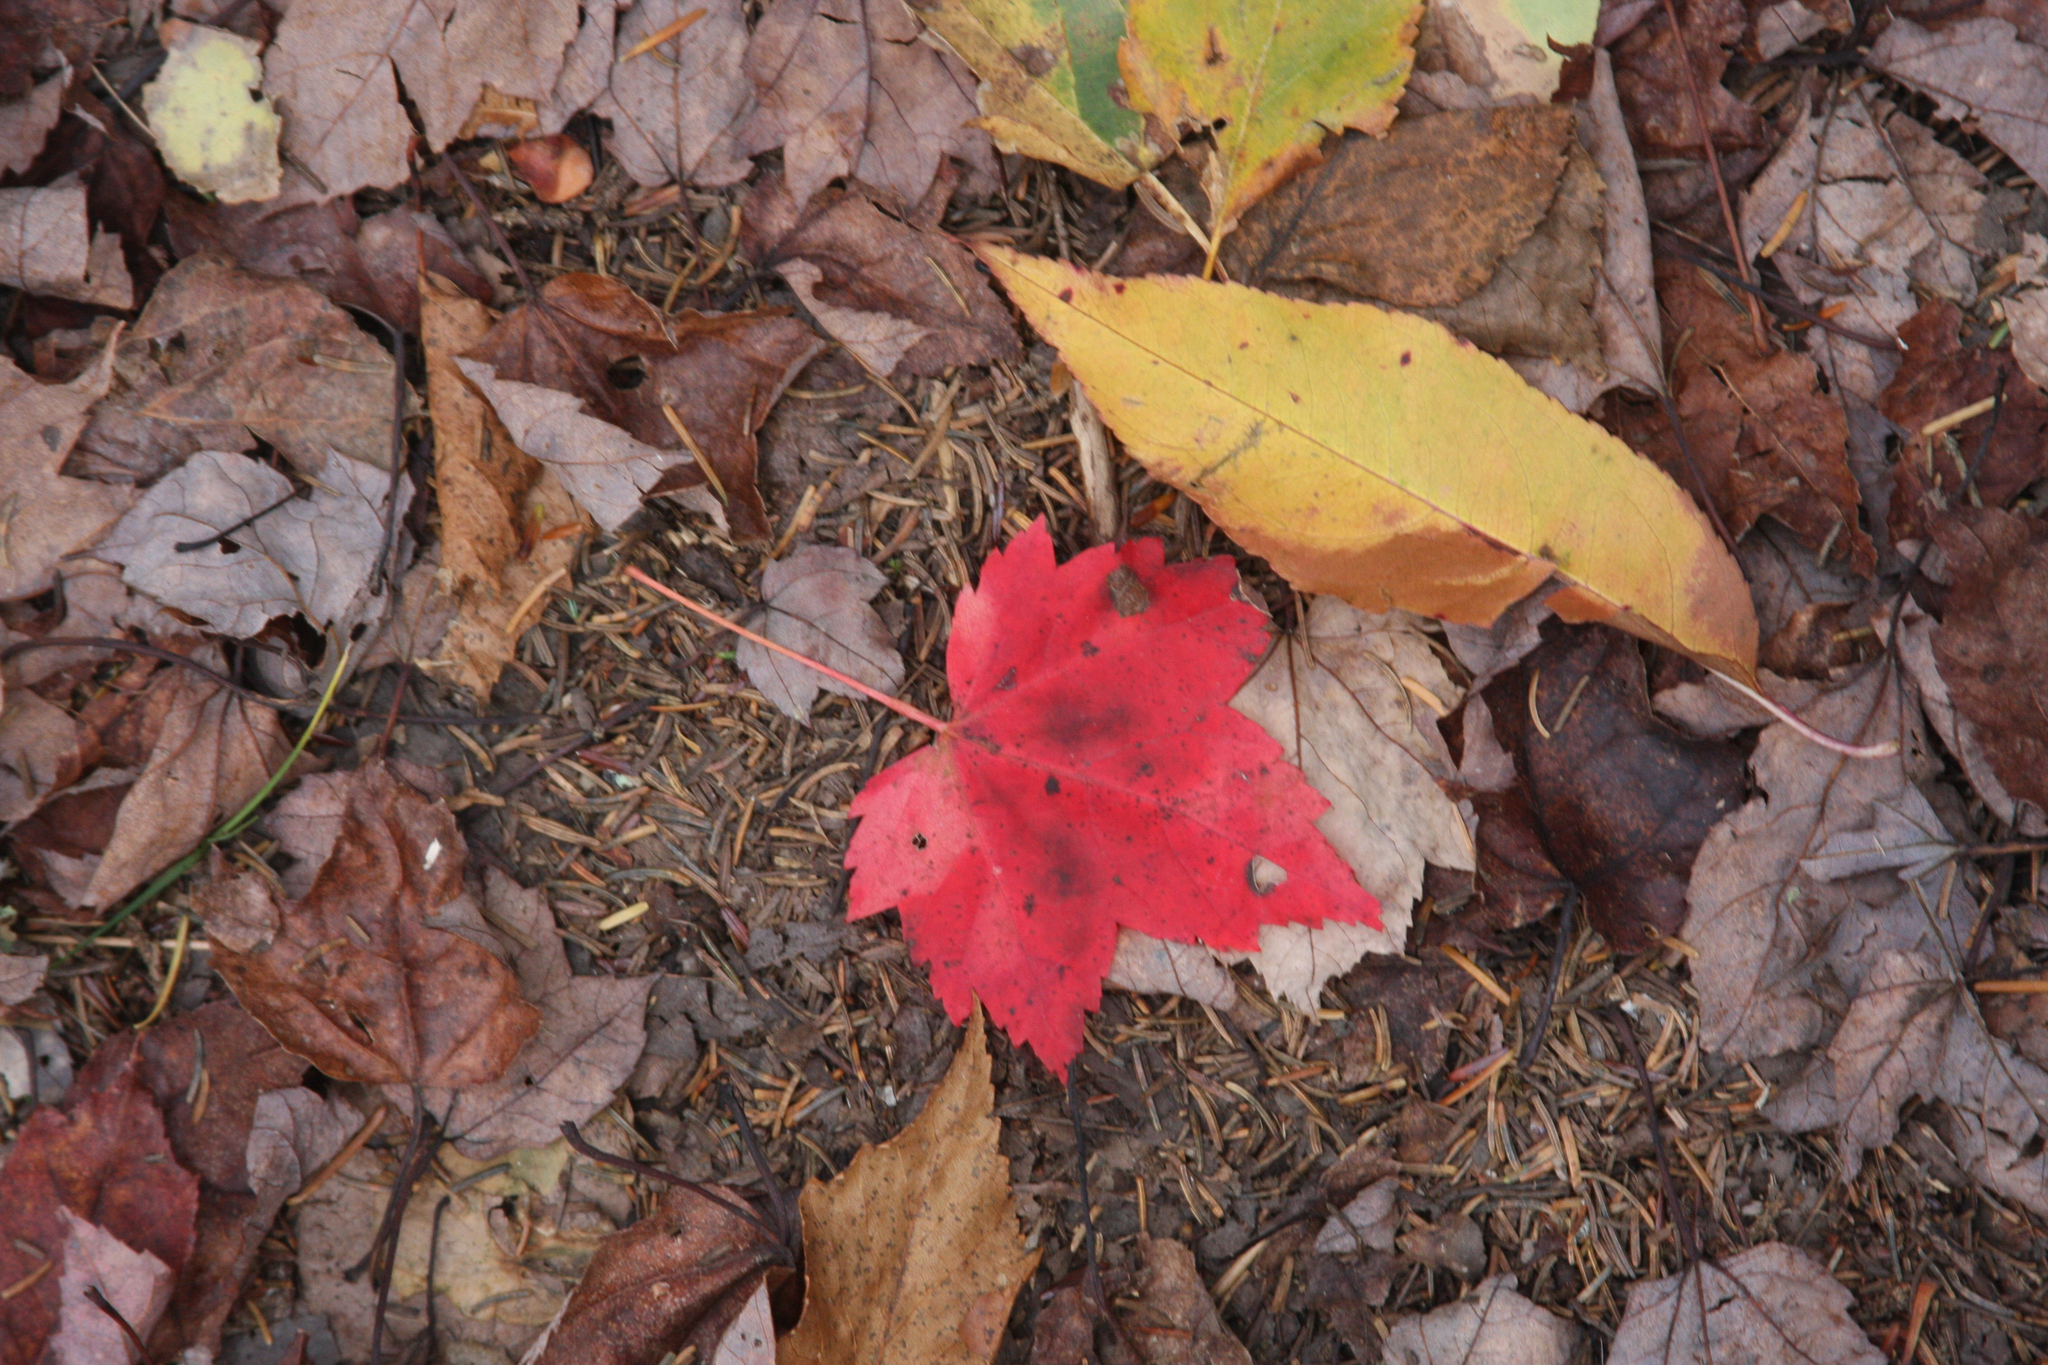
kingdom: Plantae
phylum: Tracheophyta
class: Magnoliopsida
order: Sapindales
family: Sapindaceae
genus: Acer
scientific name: Acer rubrum
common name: Red maple
